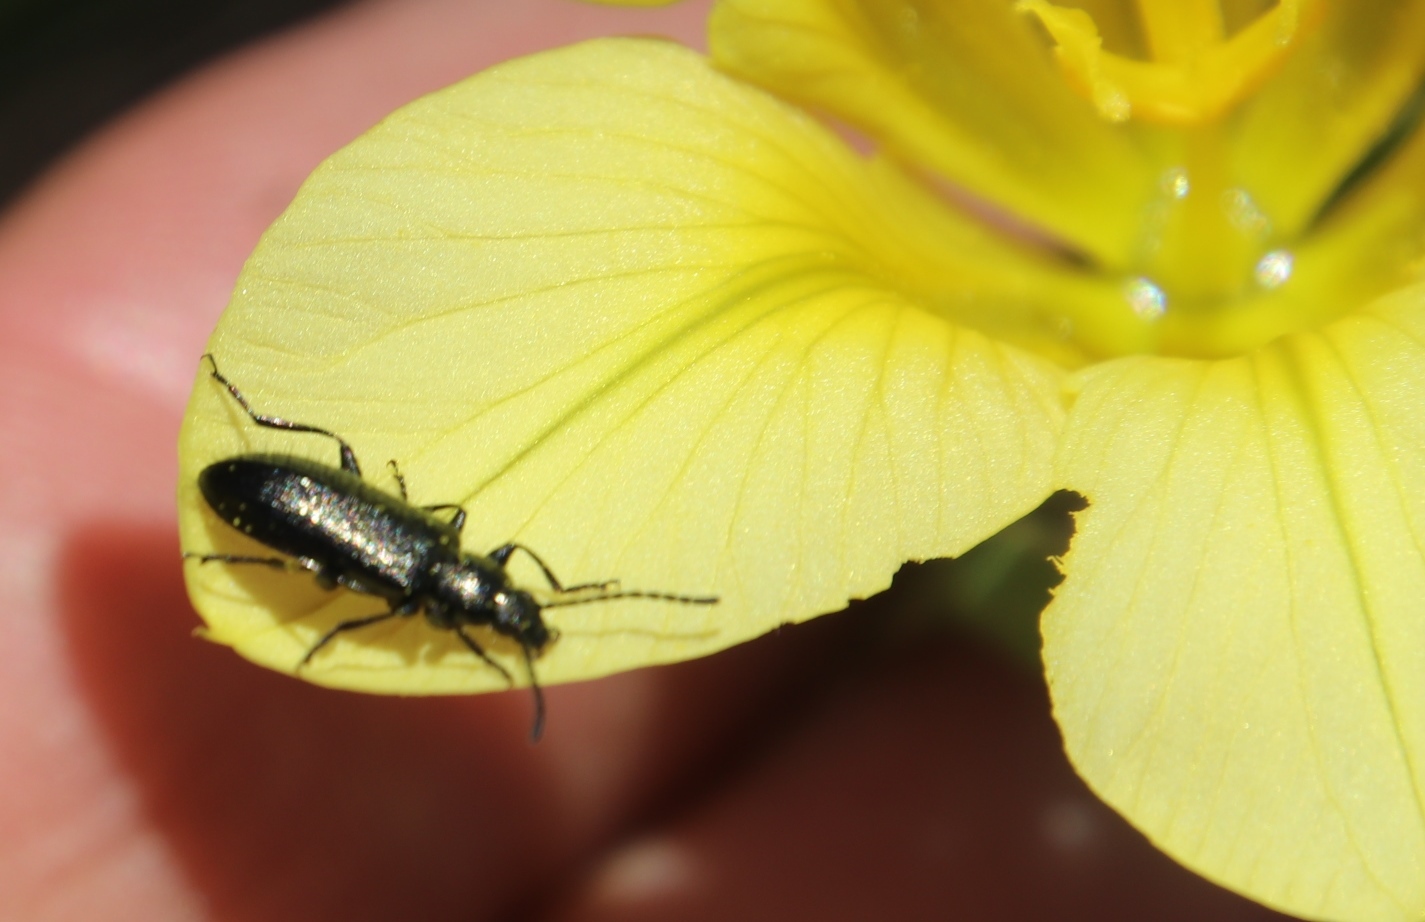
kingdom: Plantae
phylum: Tracheophyta
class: Liliopsida
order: Asparagales
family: Iridaceae
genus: Moraea
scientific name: Moraea ochroleuca
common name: Red tulp
